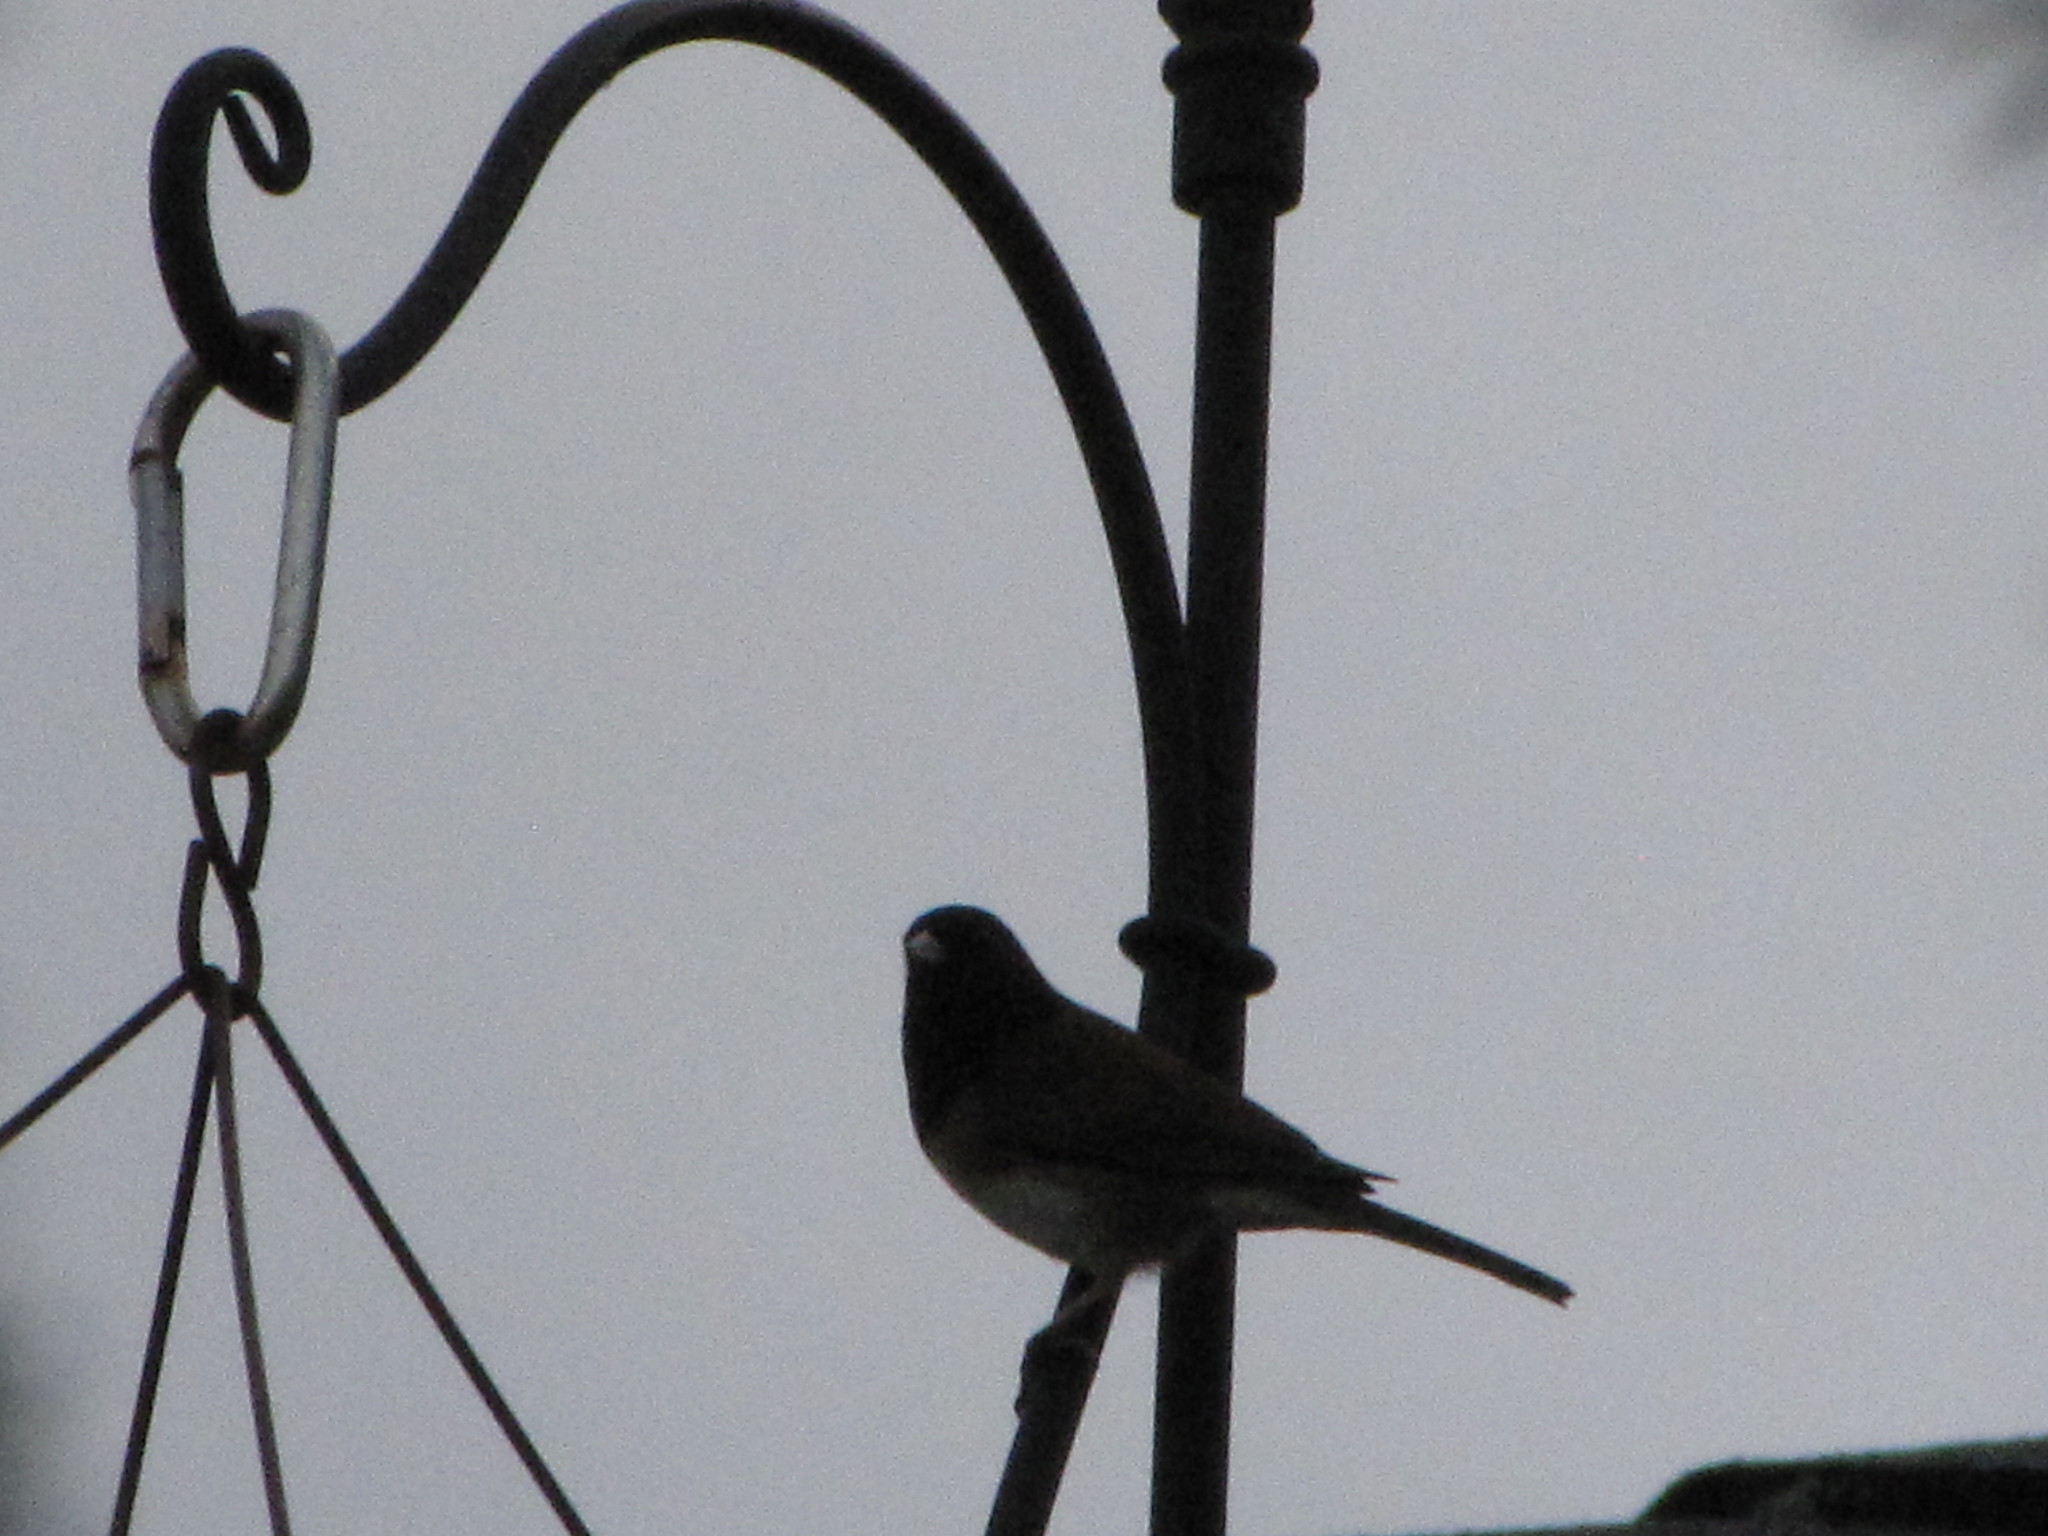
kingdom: Animalia
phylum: Chordata
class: Aves
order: Passeriformes
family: Passerellidae
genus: Junco
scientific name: Junco hyemalis
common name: Dark-eyed junco
